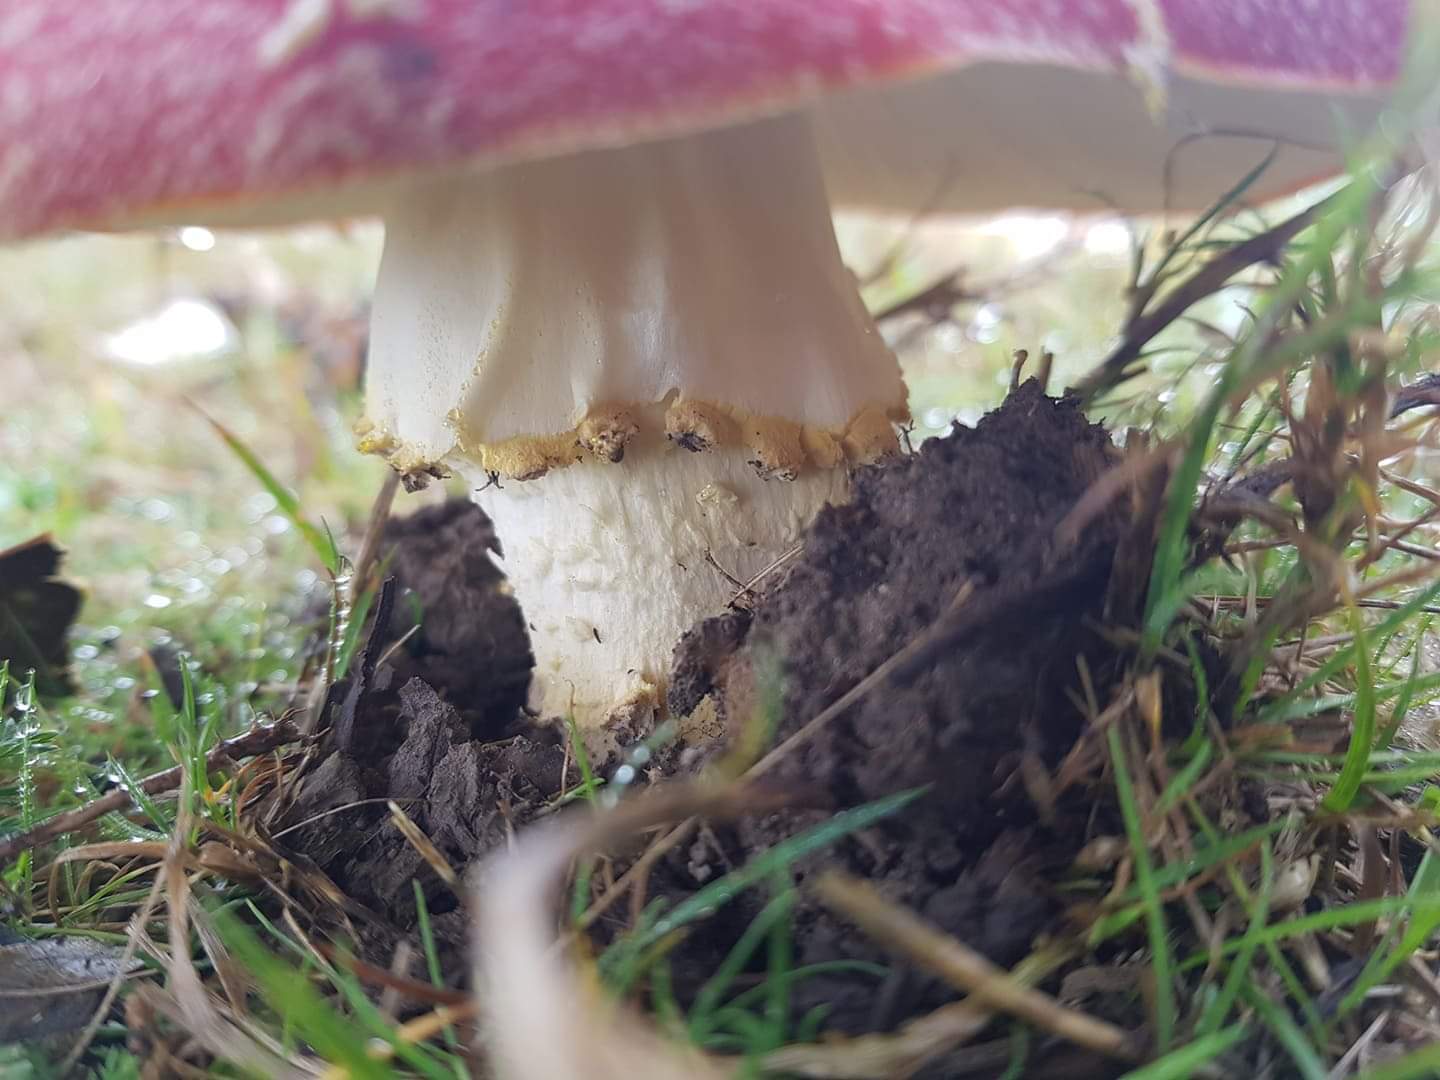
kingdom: Fungi
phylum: Basidiomycota
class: Agaricomycetes
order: Agaricales
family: Amanitaceae
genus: Amanita
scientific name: Amanita muscaria
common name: Fly agaric
